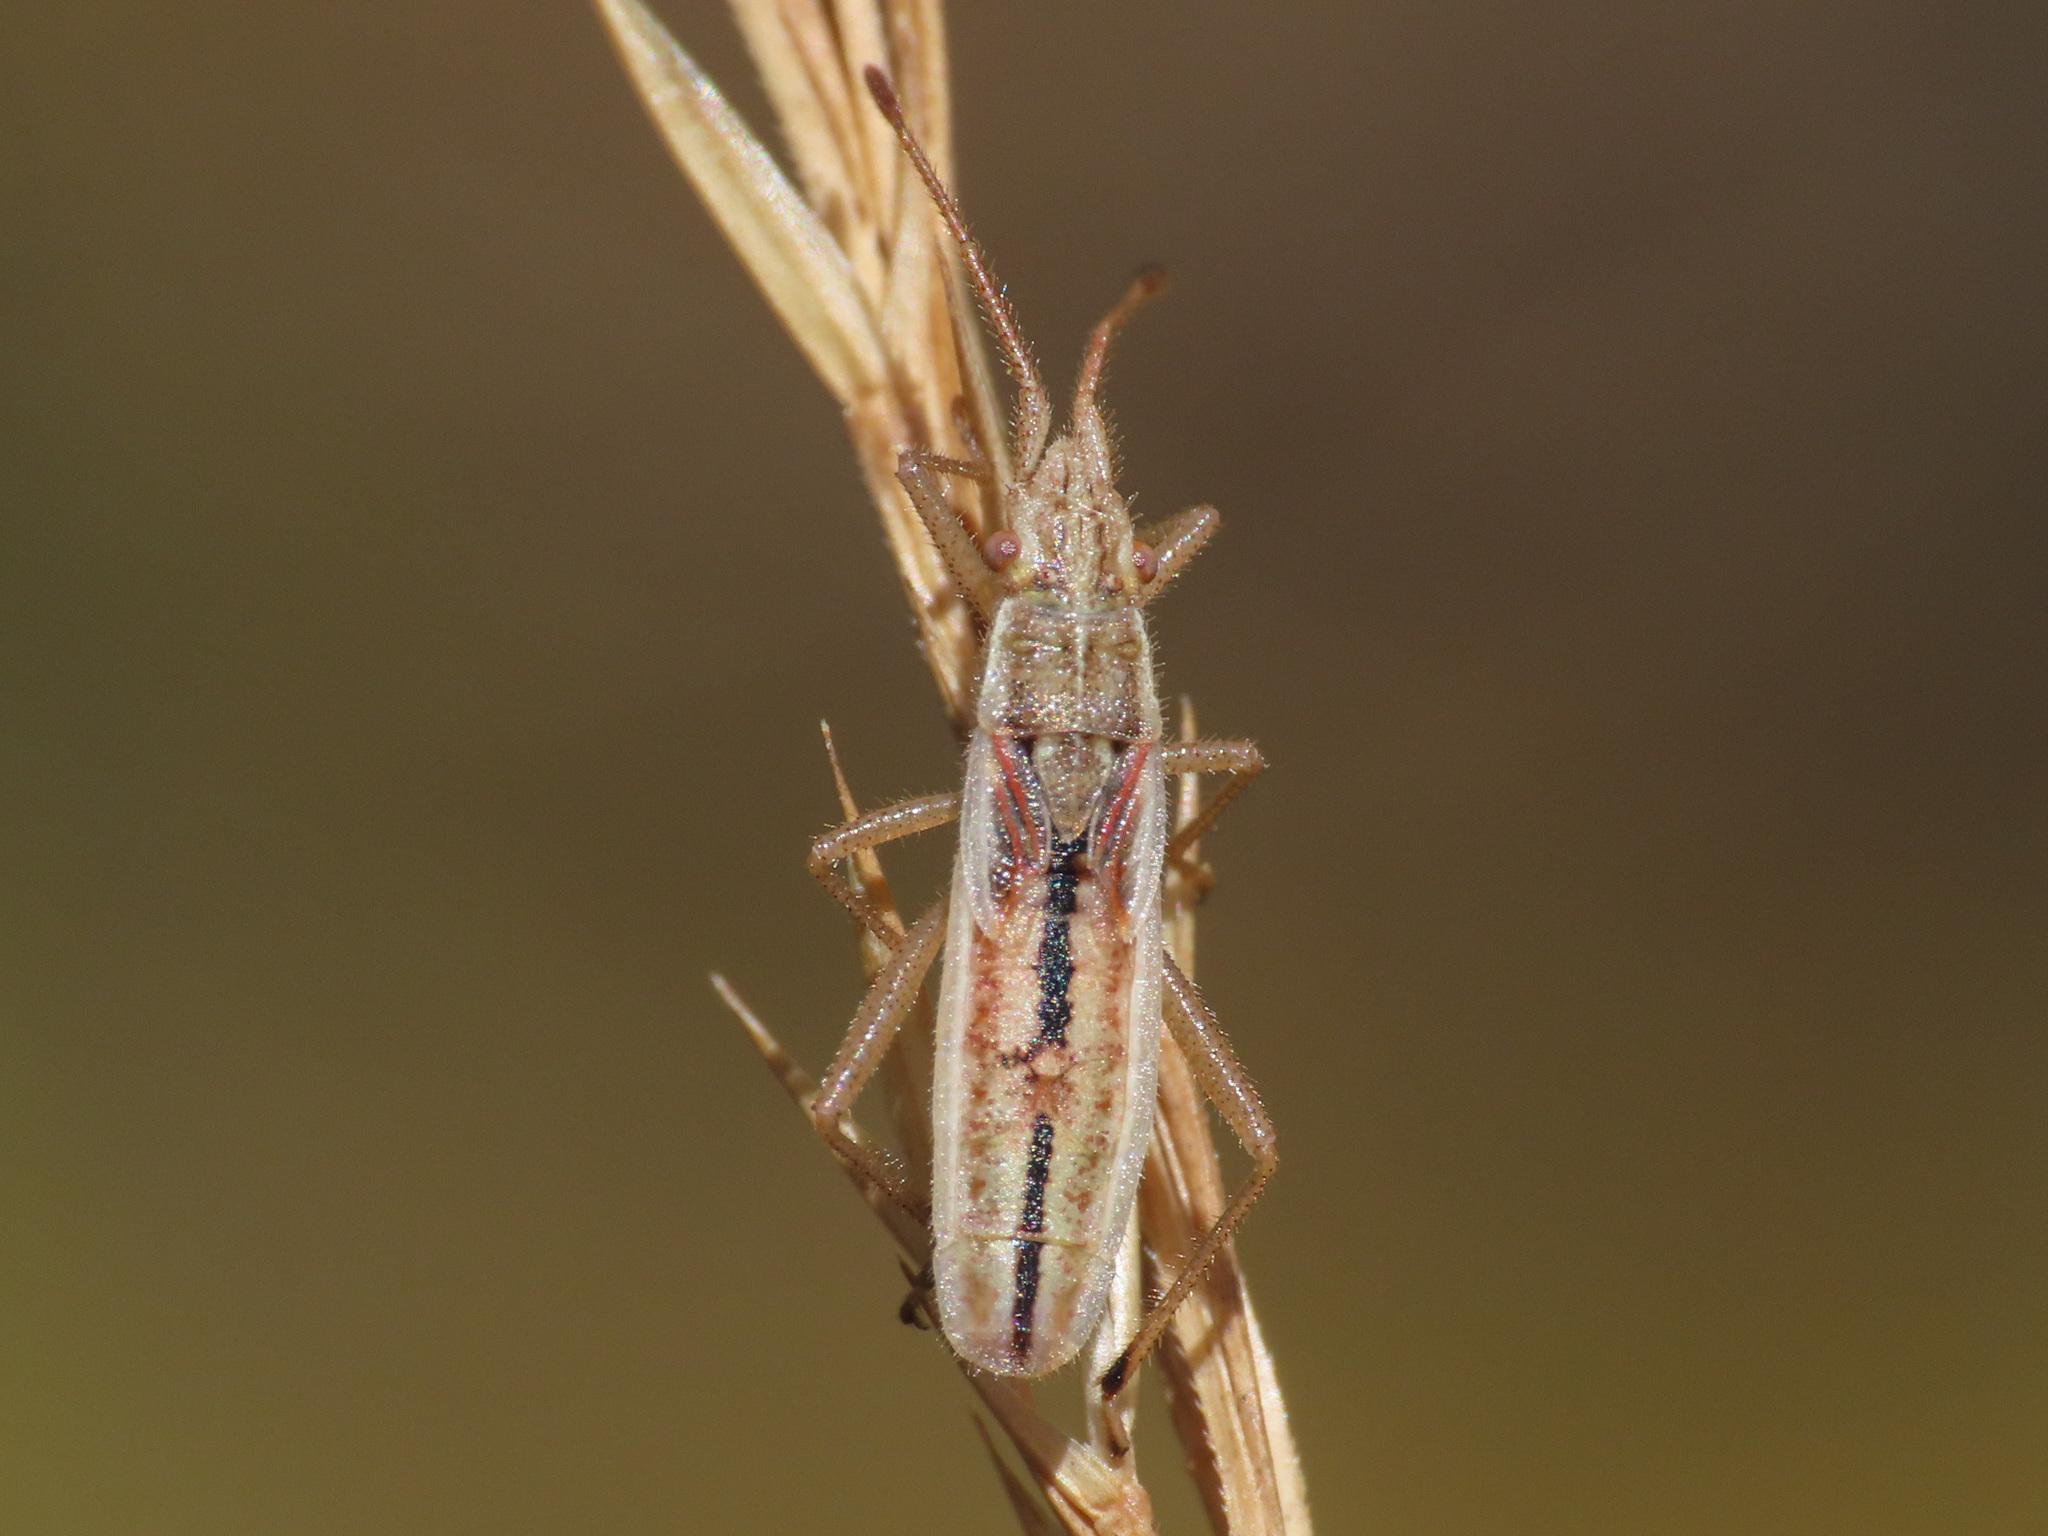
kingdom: Animalia
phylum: Arthropoda
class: Insecta
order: Hemiptera
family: Rhopalidae
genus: Myrmus
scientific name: Myrmus miriformis
